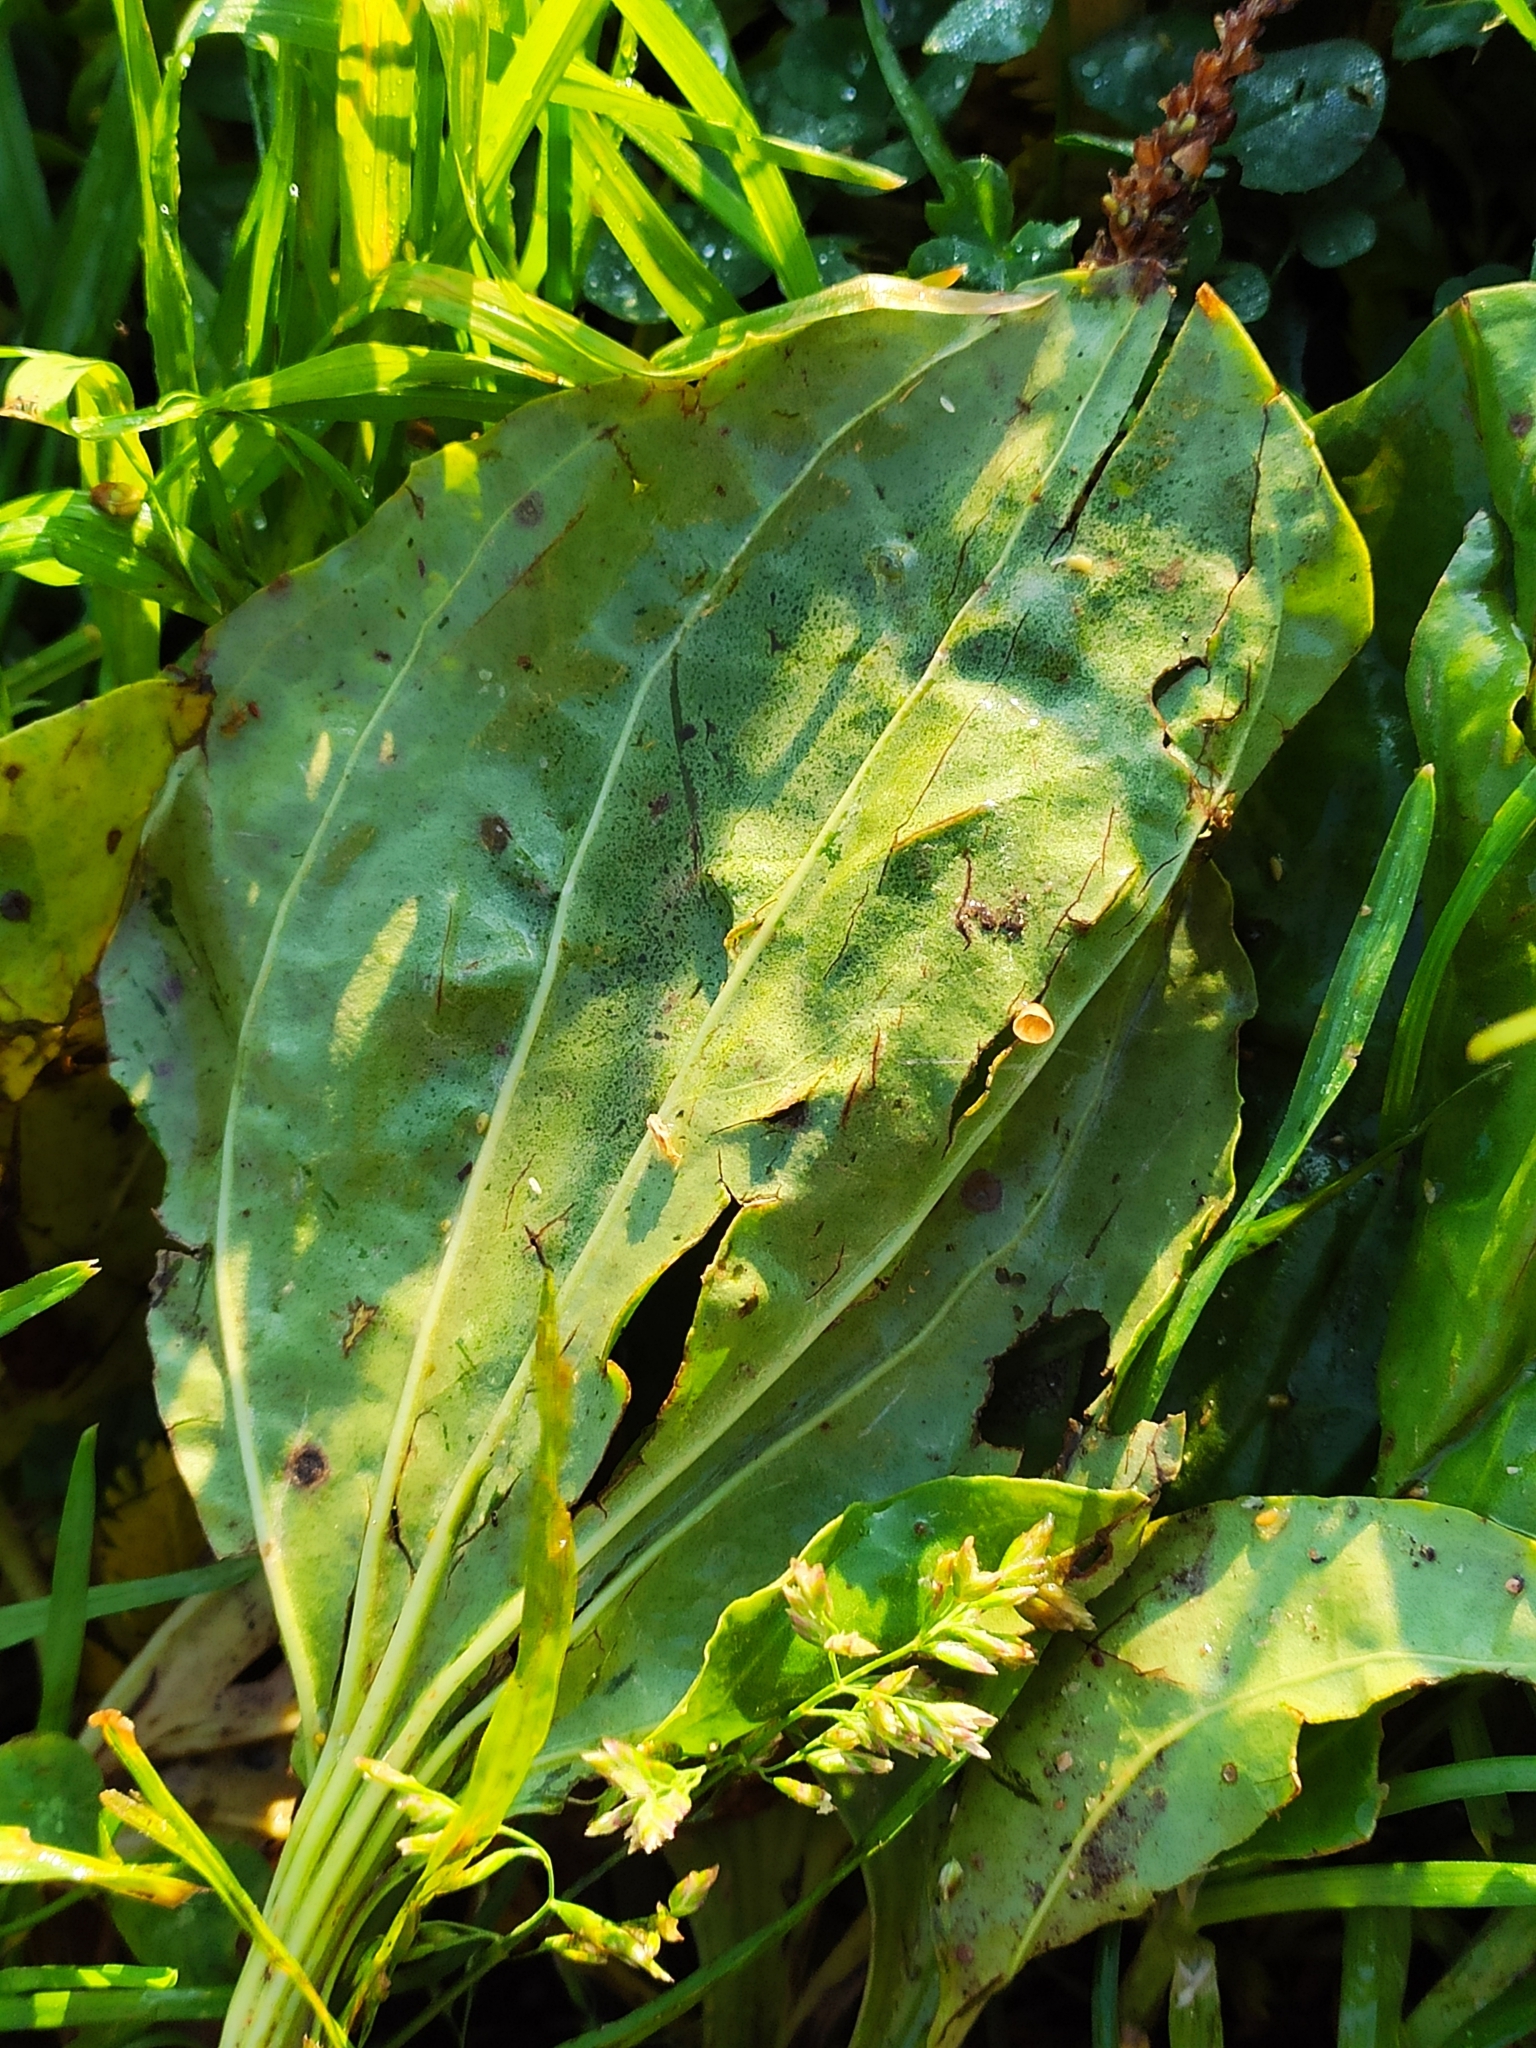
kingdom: Plantae
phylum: Tracheophyta
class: Magnoliopsida
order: Lamiales
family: Plantaginaceae
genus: Plantago
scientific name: Plantago major
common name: Common plantain
